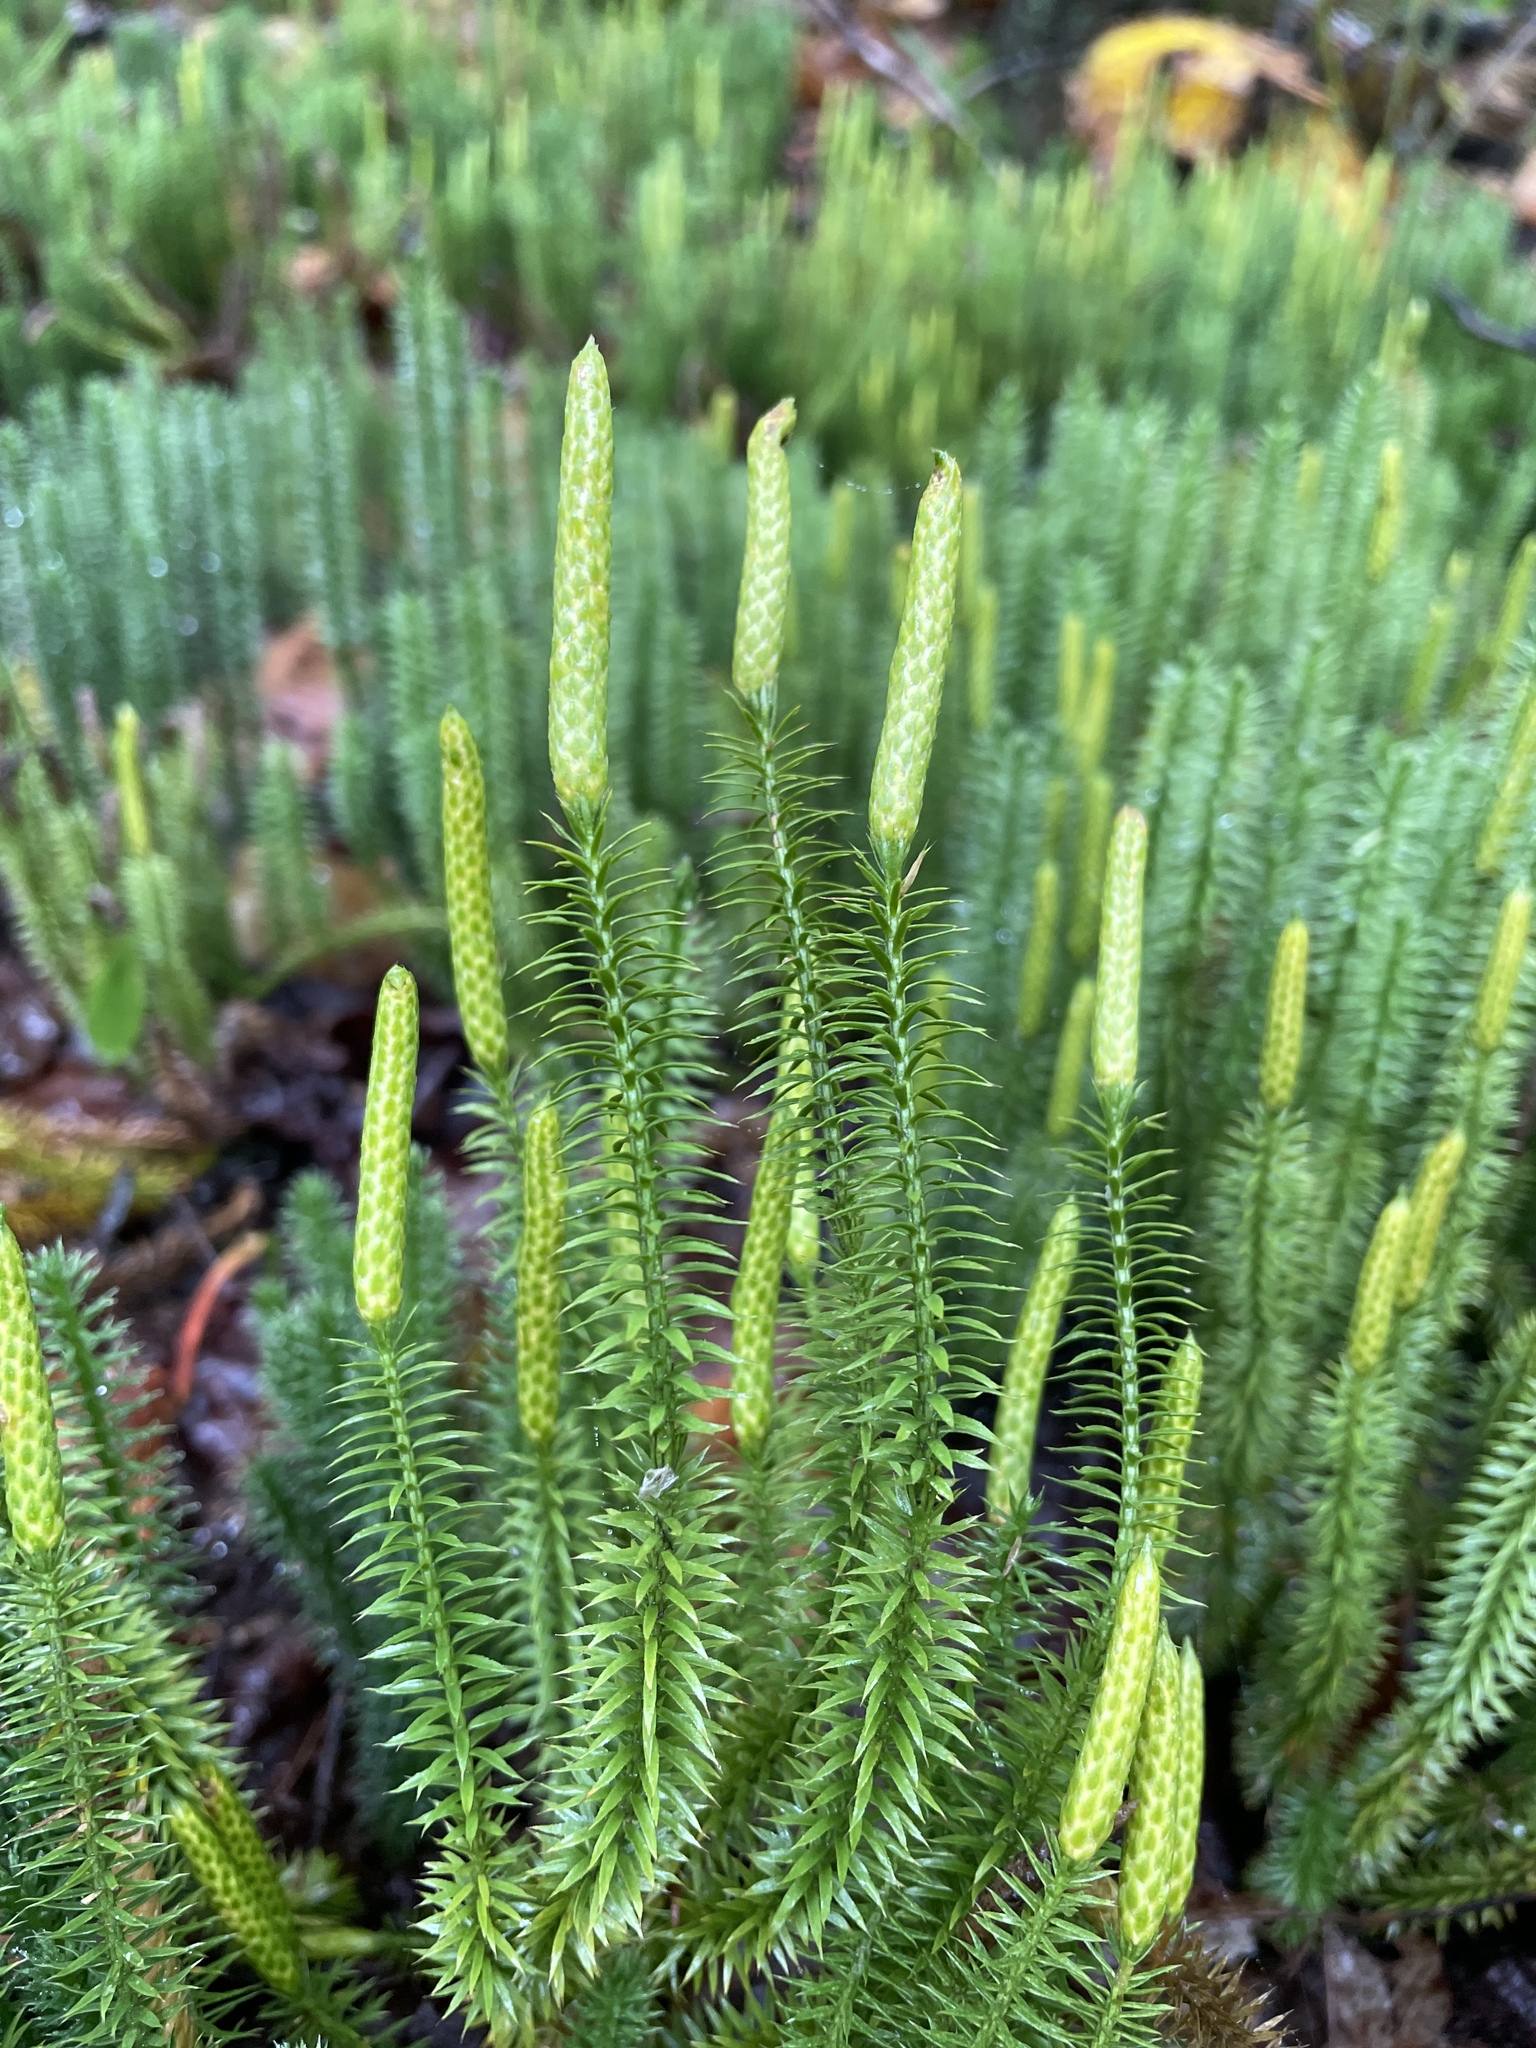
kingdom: Plantae
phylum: Tracheophyta
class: Lycopodiopsida
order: Lycopodiales
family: Lycopodiaceae
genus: Spinulum
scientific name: Spinulum annotinum
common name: Interrupted club-moss
